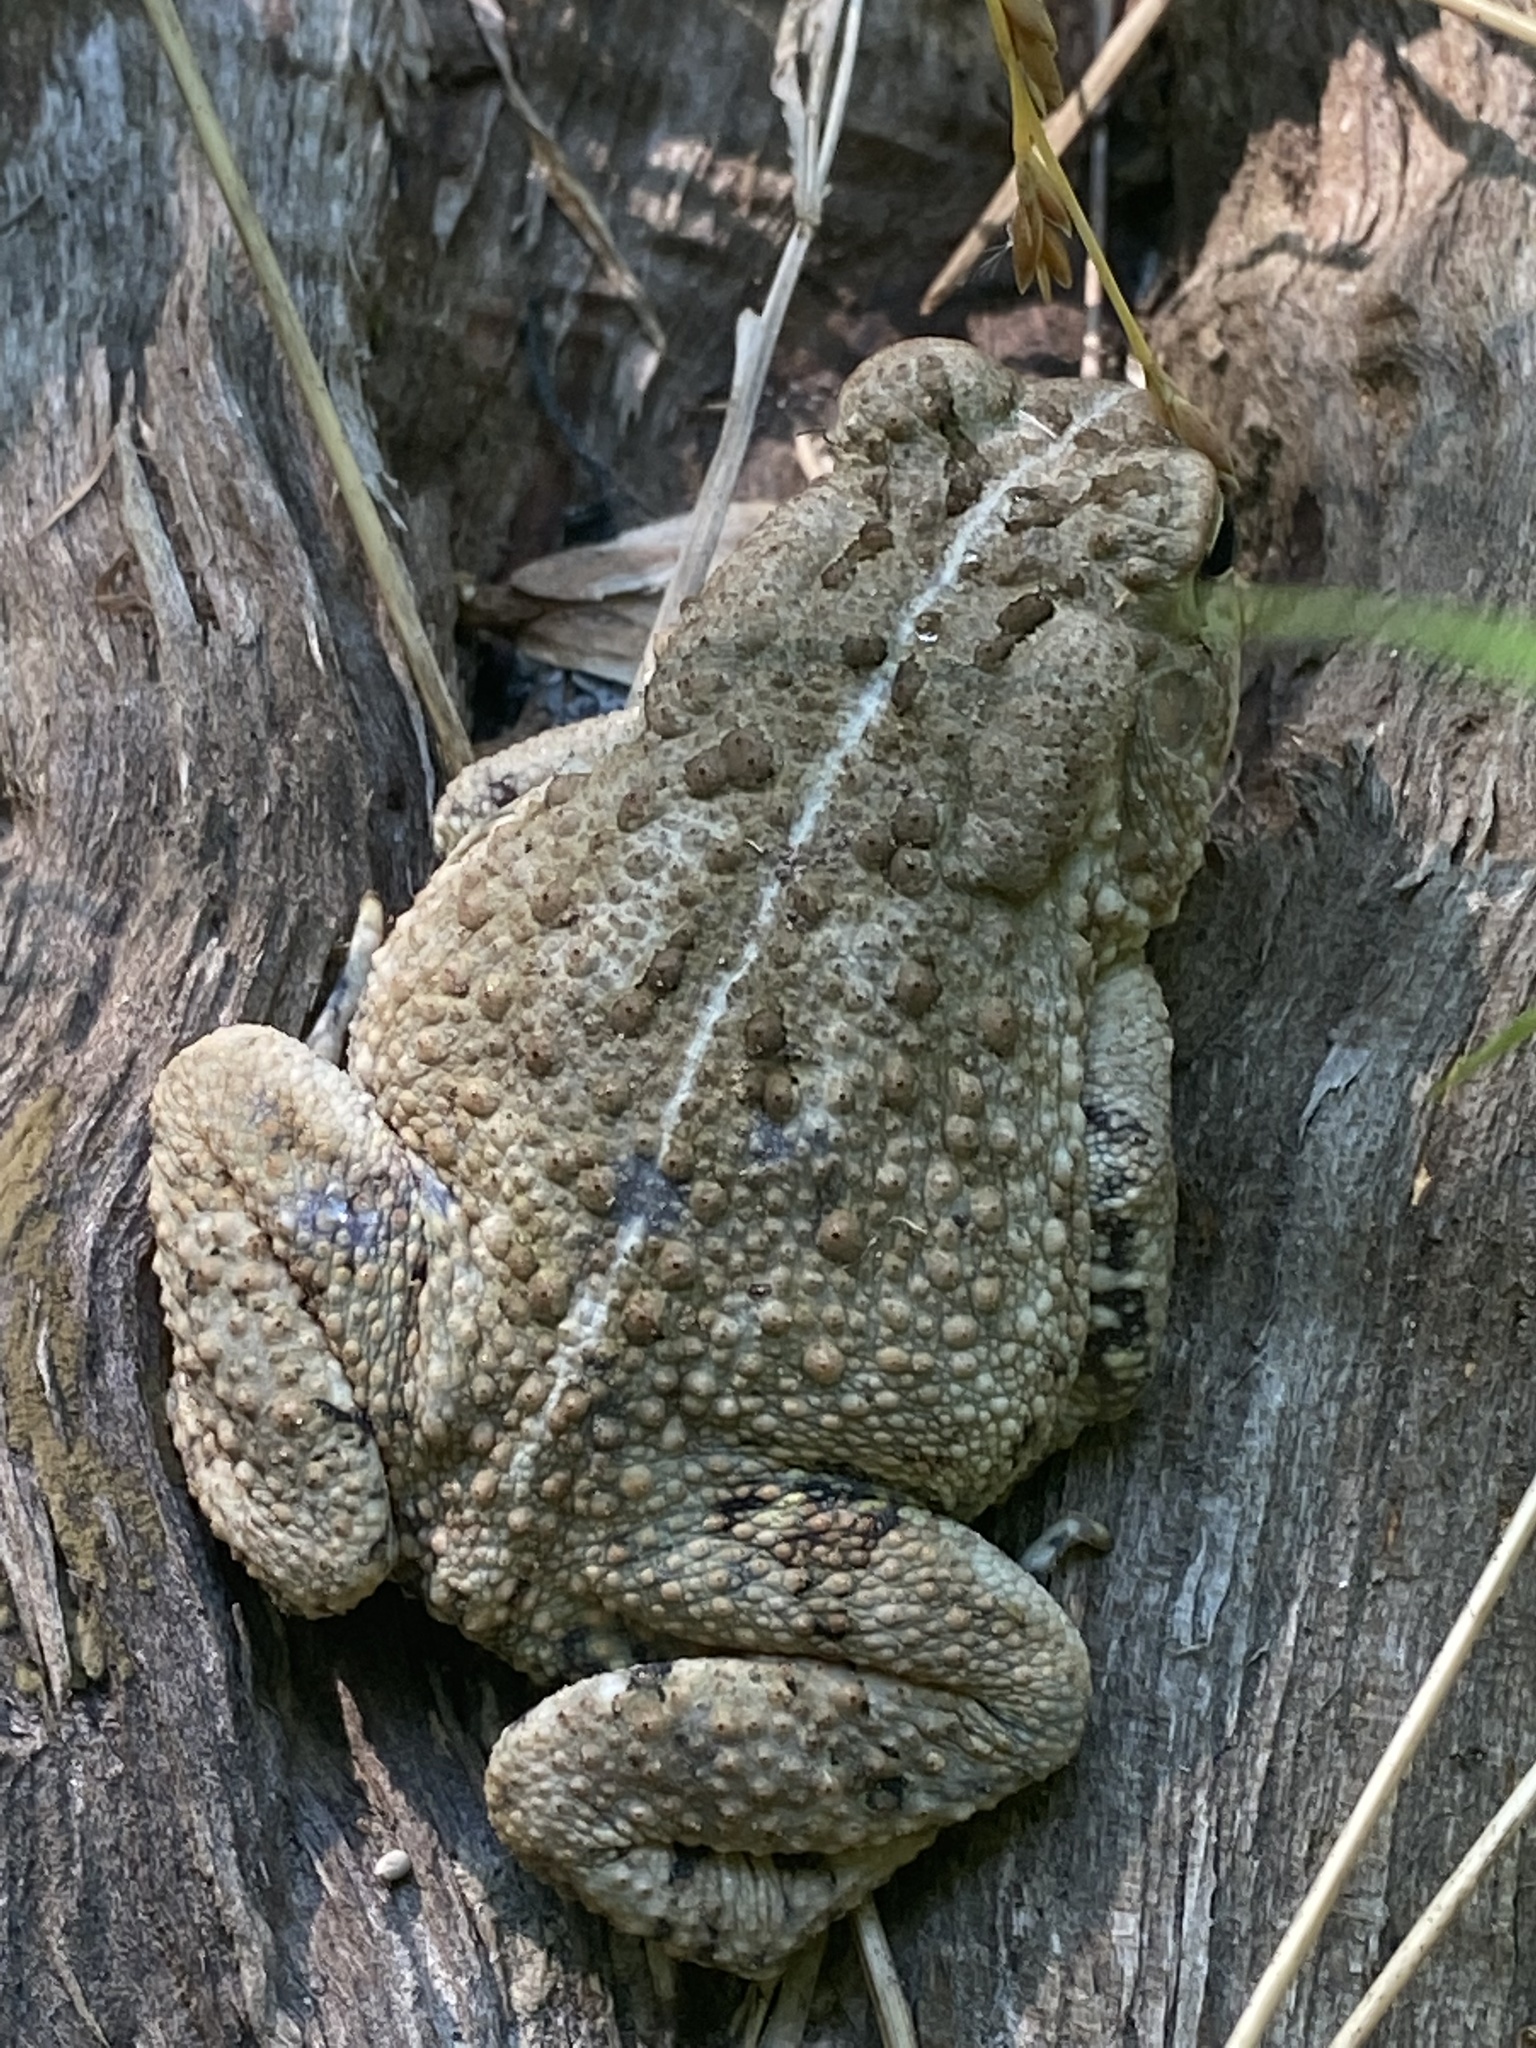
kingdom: Animalia
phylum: Chordata
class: Amphibia
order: Anura
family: Bufonidae
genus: Anaxyrus
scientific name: Anaxyrus fowleri
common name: Fowler's toad
